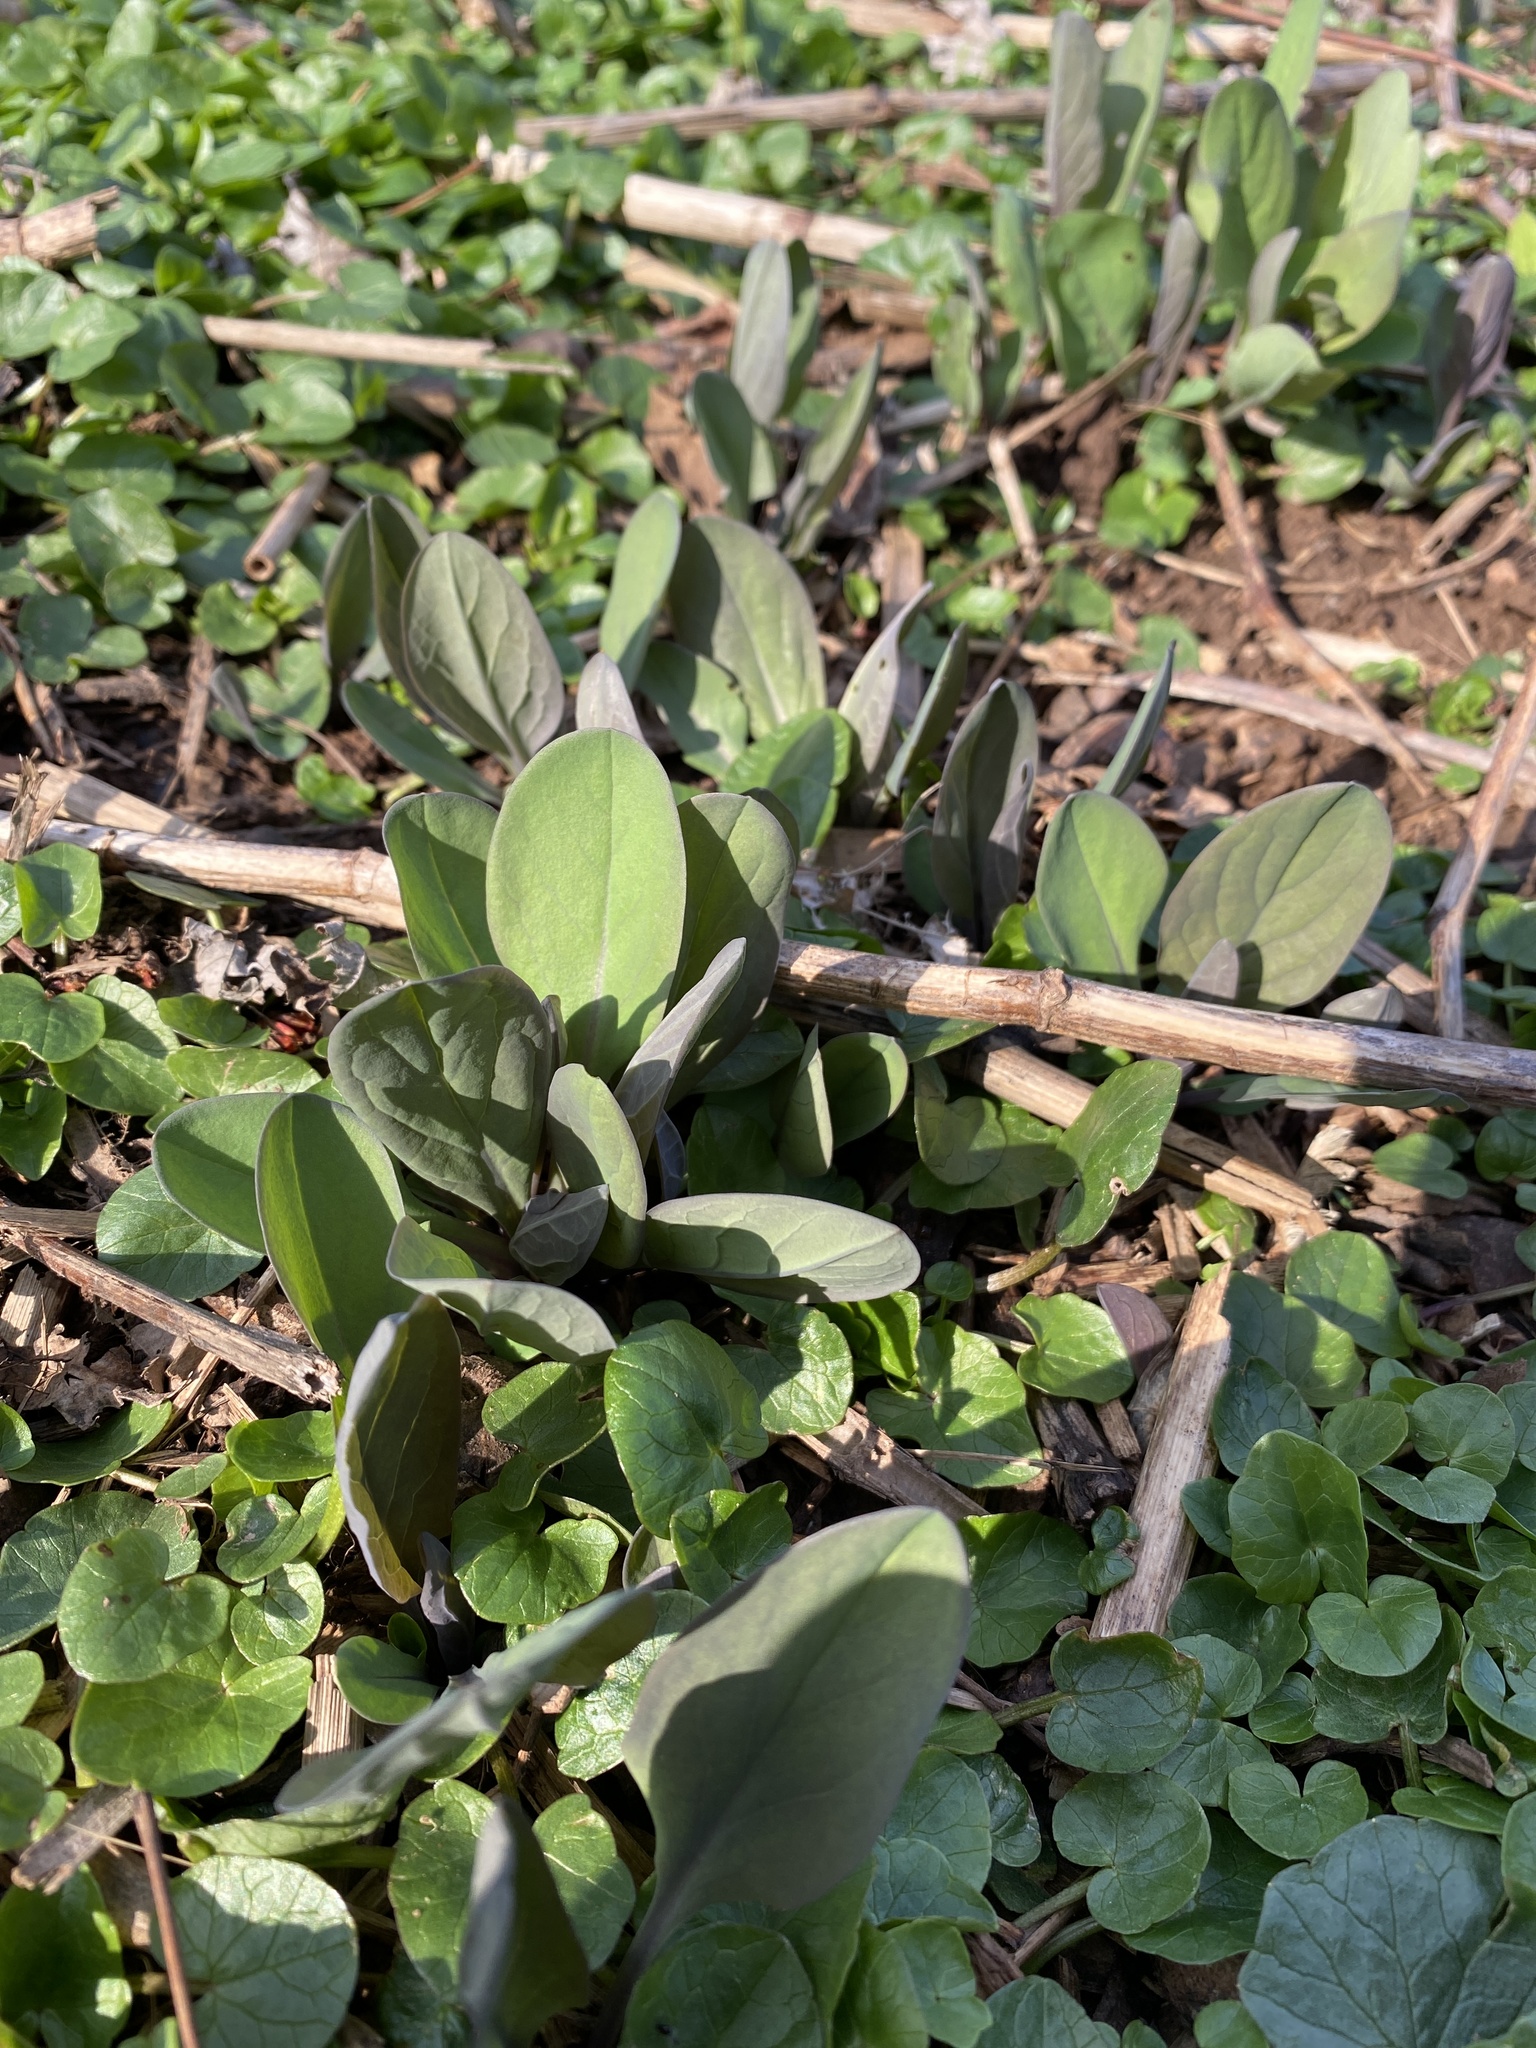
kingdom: Plantae
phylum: Tracheophyta
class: Magnoliopsida
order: Boraginales
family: Boraginaceae
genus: Mertensia
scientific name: Mertensia virginica
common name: Virginia bluebells
